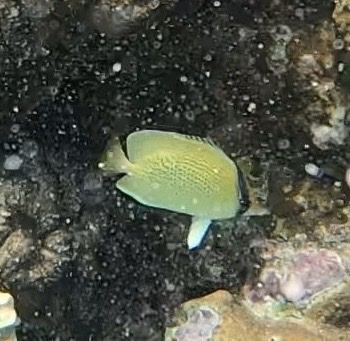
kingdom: Animalia
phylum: Chordata
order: Perciformes
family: Chaetodontidae
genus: Chaetodon
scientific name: Chaetodon citrinellus
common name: Speckled butterflyfish
